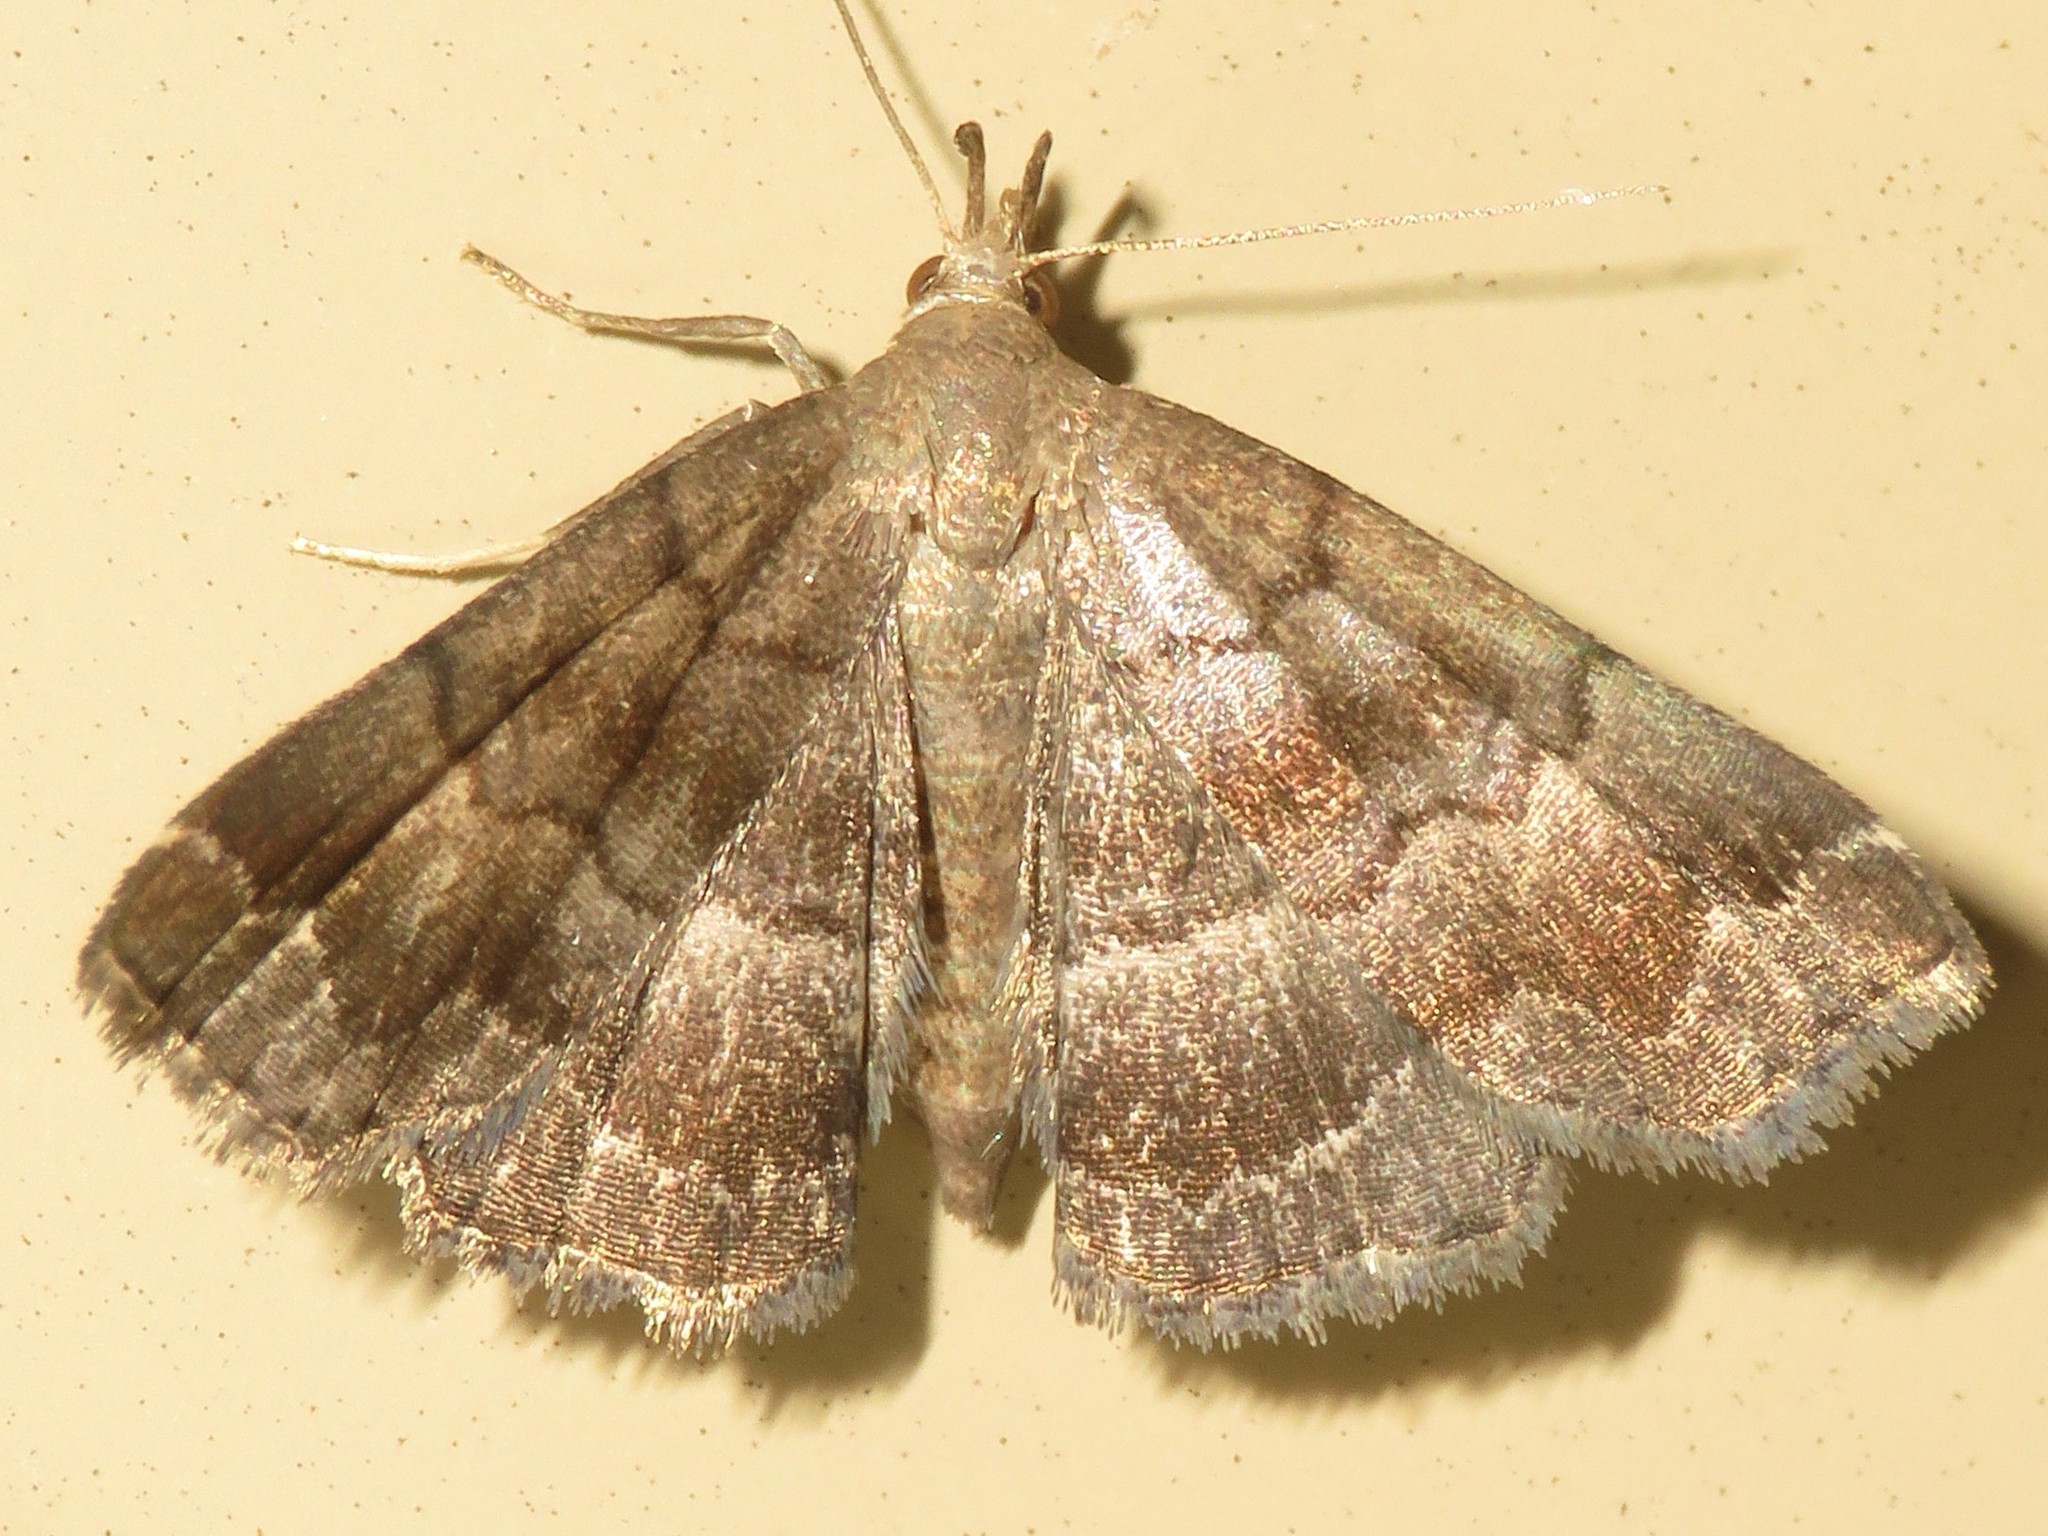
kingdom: Animalia
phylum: Arthropoda
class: Insecta
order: Lepidoptera
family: Erebidae
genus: Phalaenostola
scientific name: Phalaenostola larentioides
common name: Black-banded owlet
